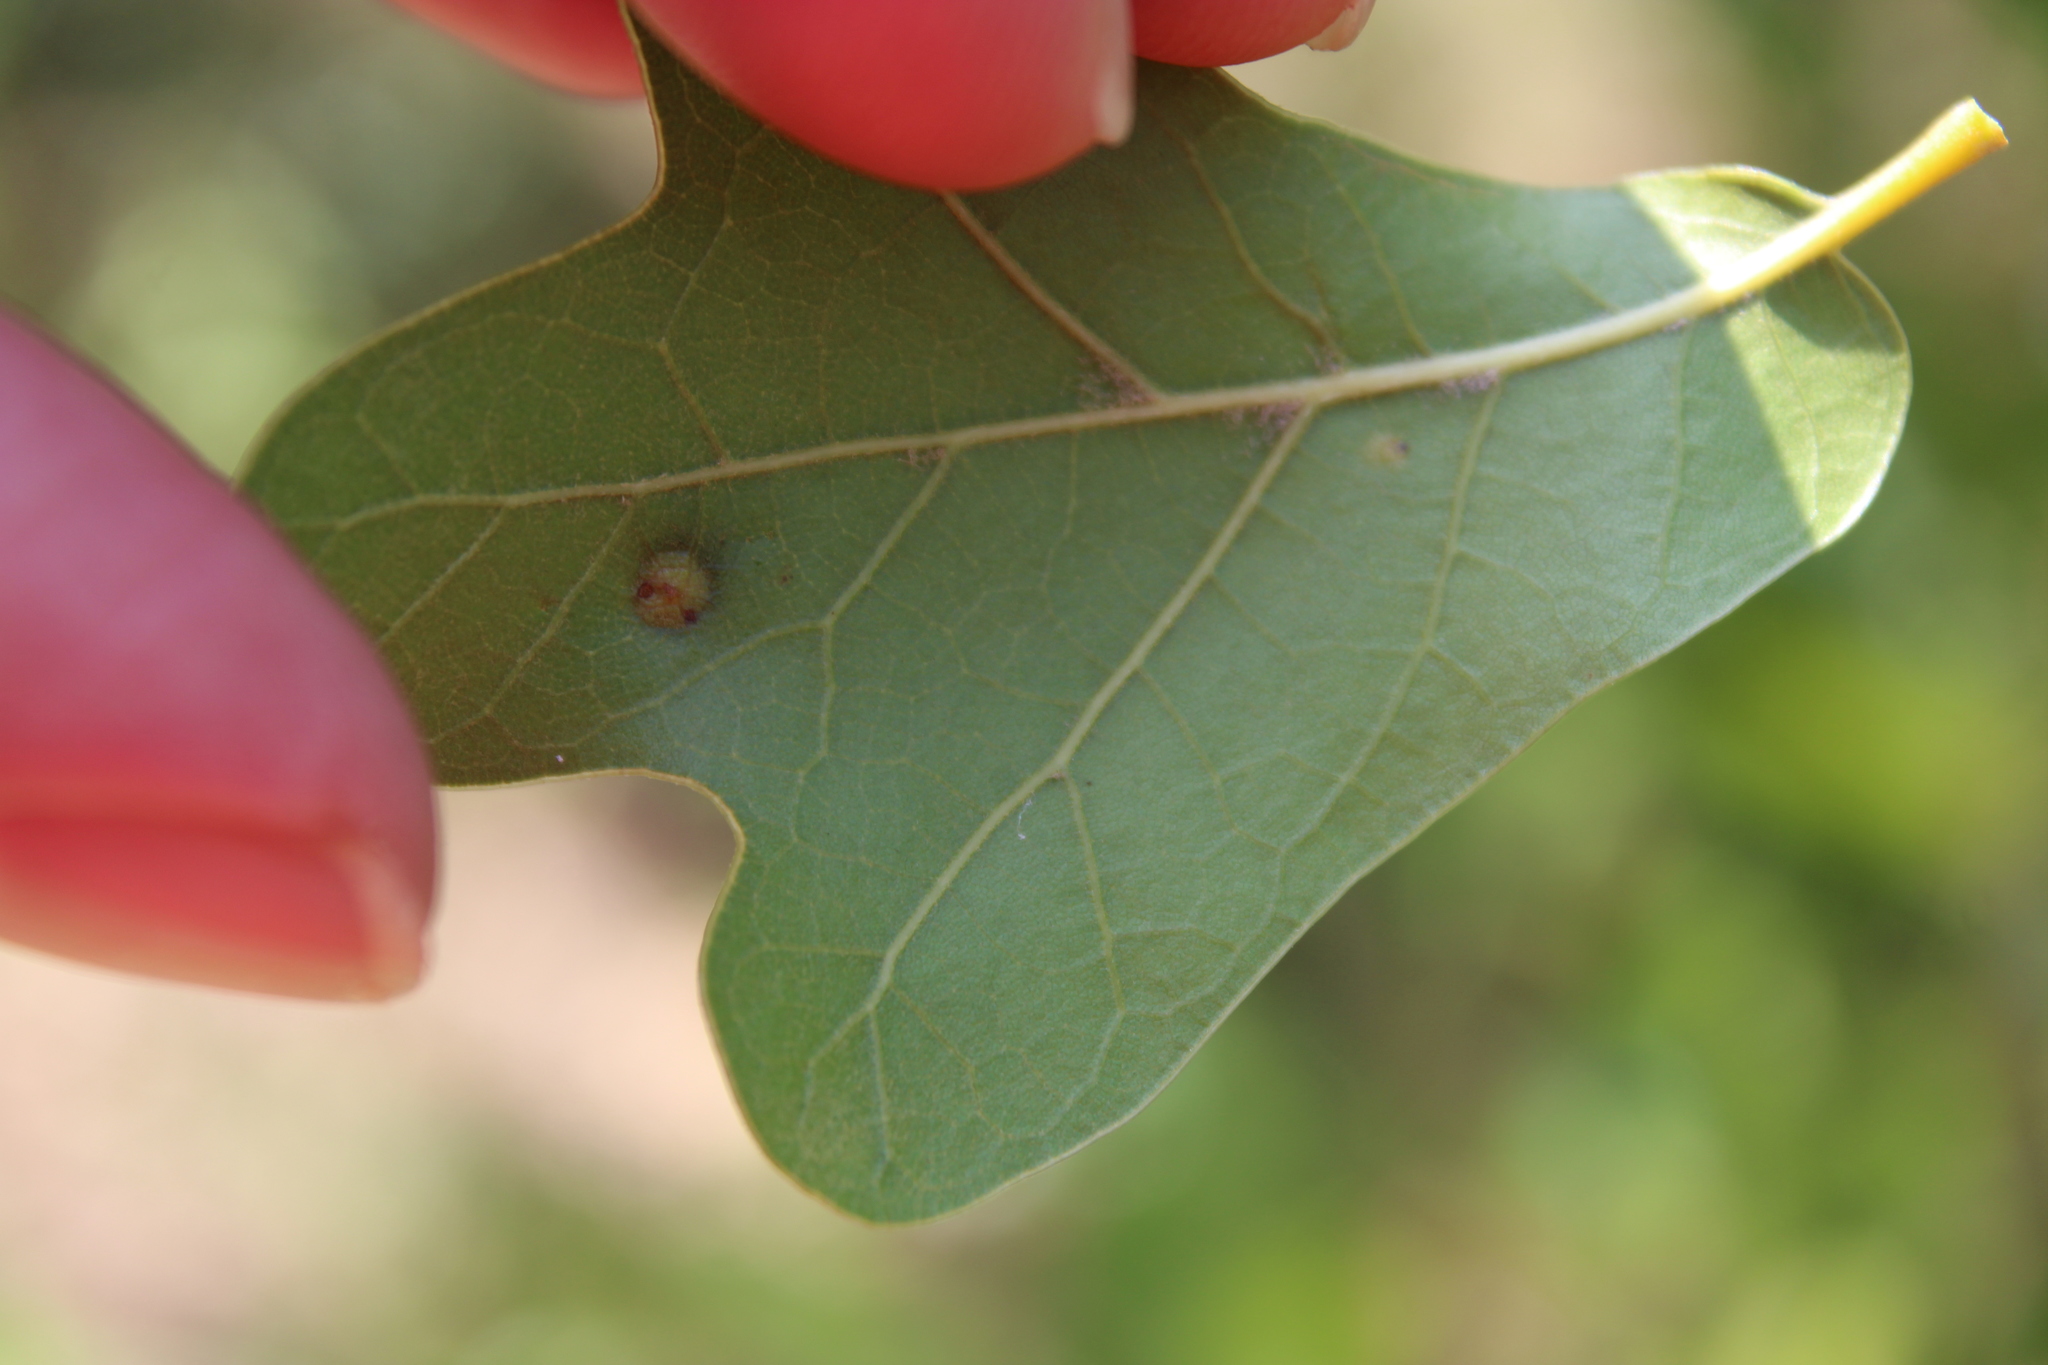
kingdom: Animalia
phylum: Arthropoda
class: Insecta
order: Diptera
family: Cecidomyiidae
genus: Polystepha
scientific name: Polystepha pilulae
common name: Oak leaf gall midge
